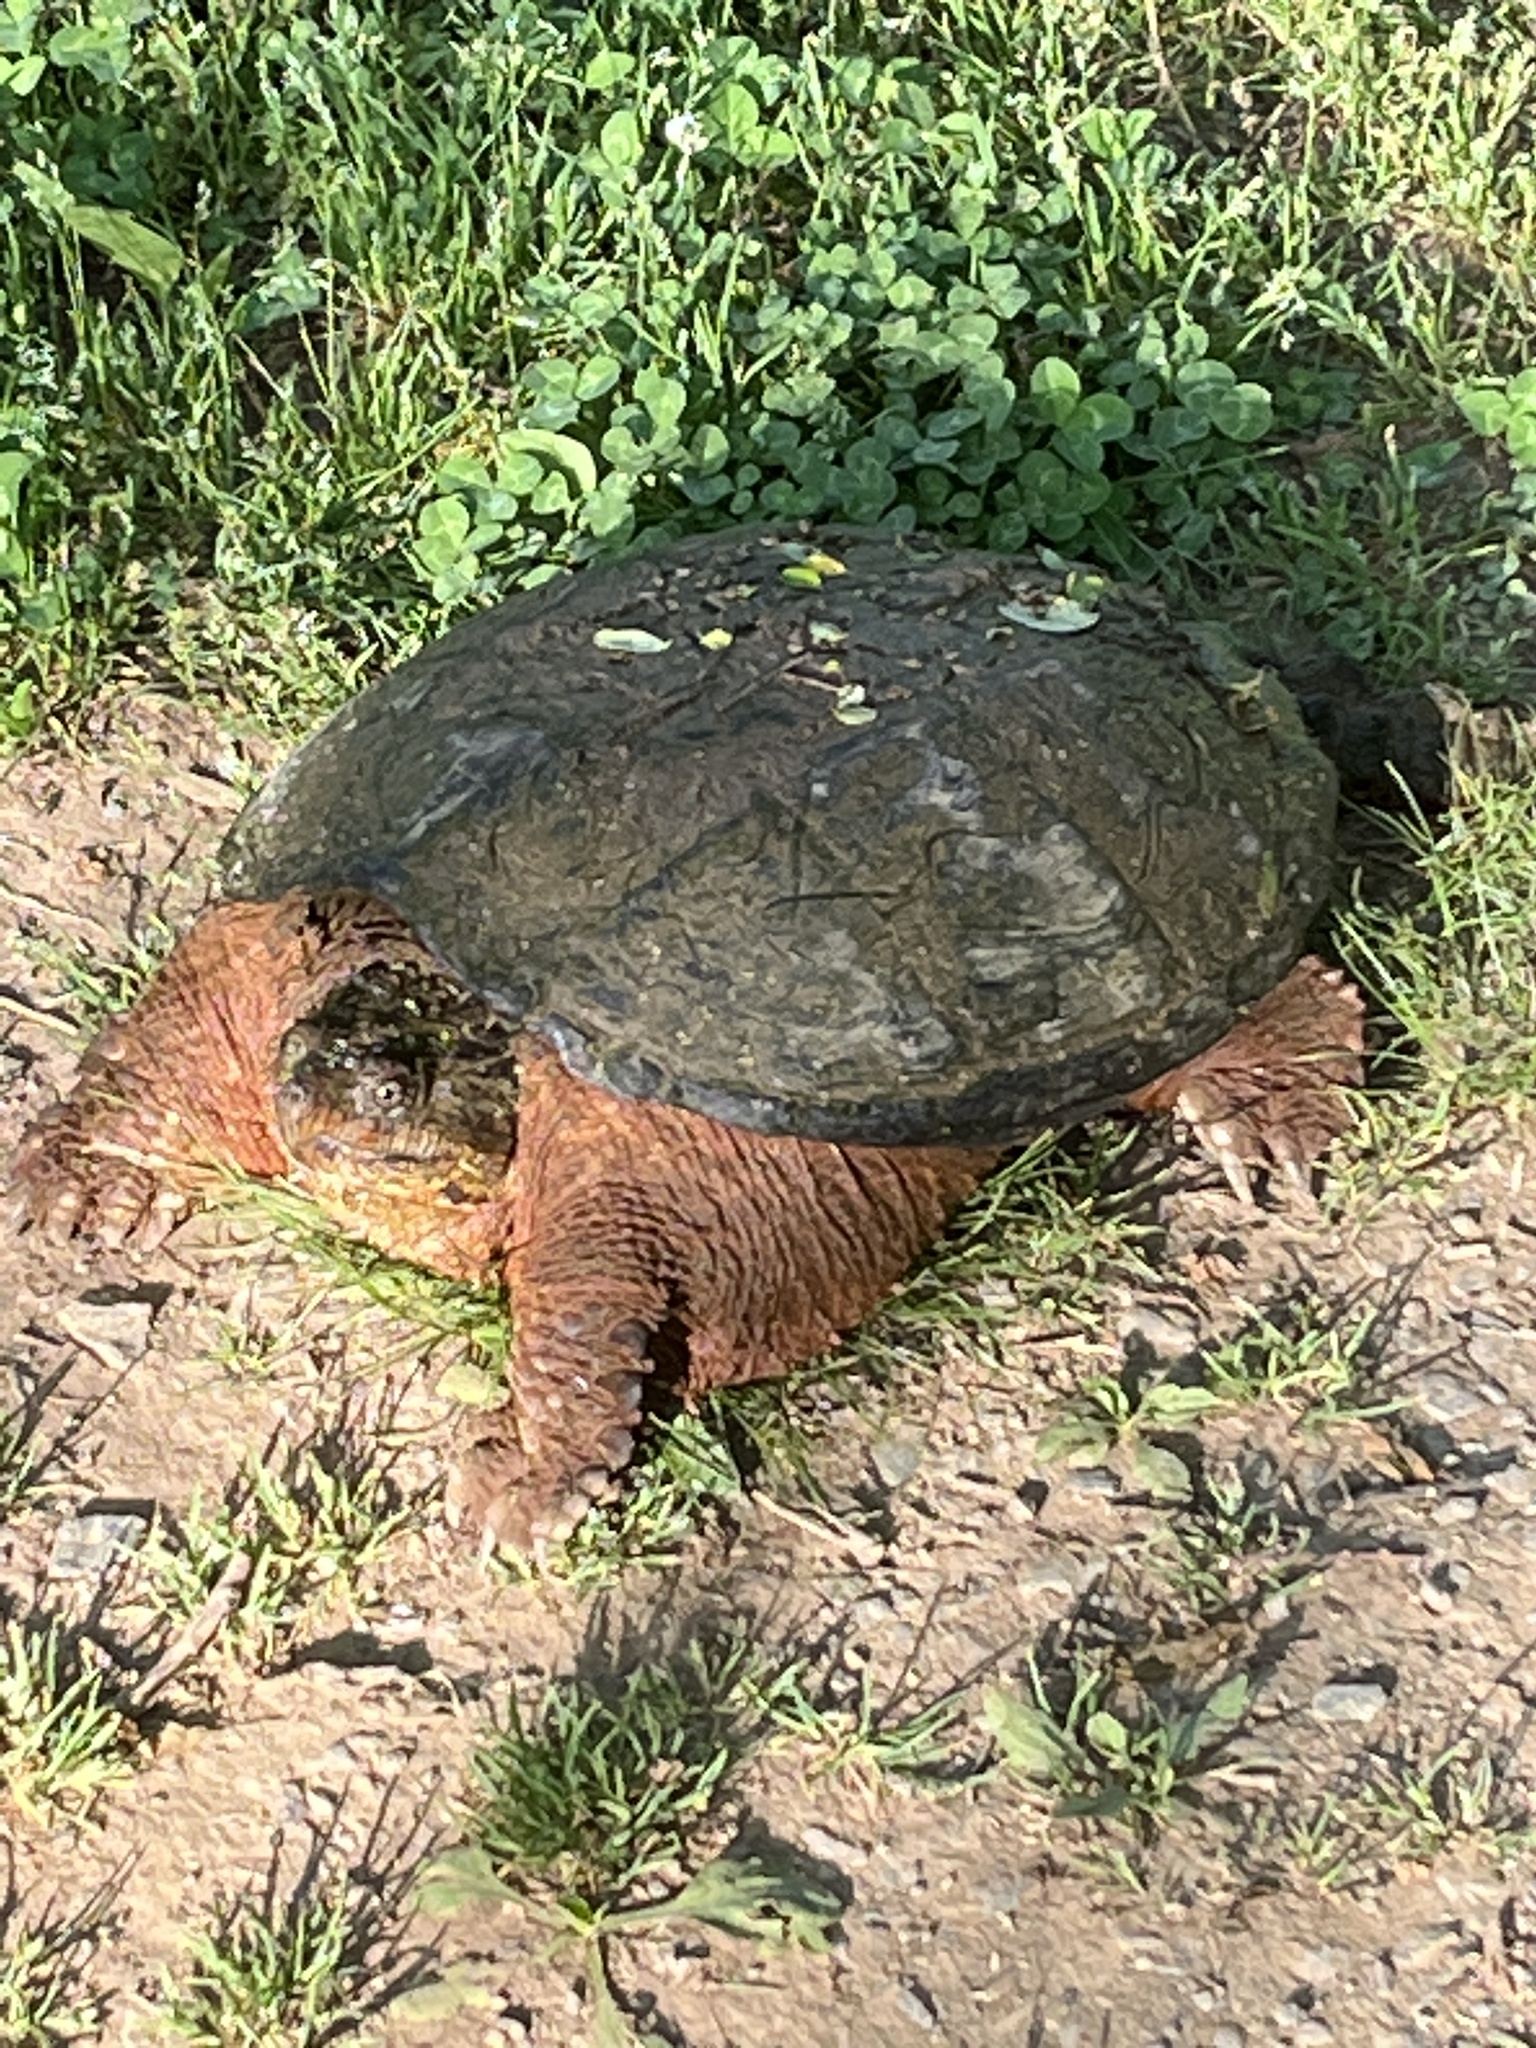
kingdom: Animalia
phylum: Chordata
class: Testudines
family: Chelydridae
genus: Chelydra
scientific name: Chelydra serpentina
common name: Common snapping turtle
